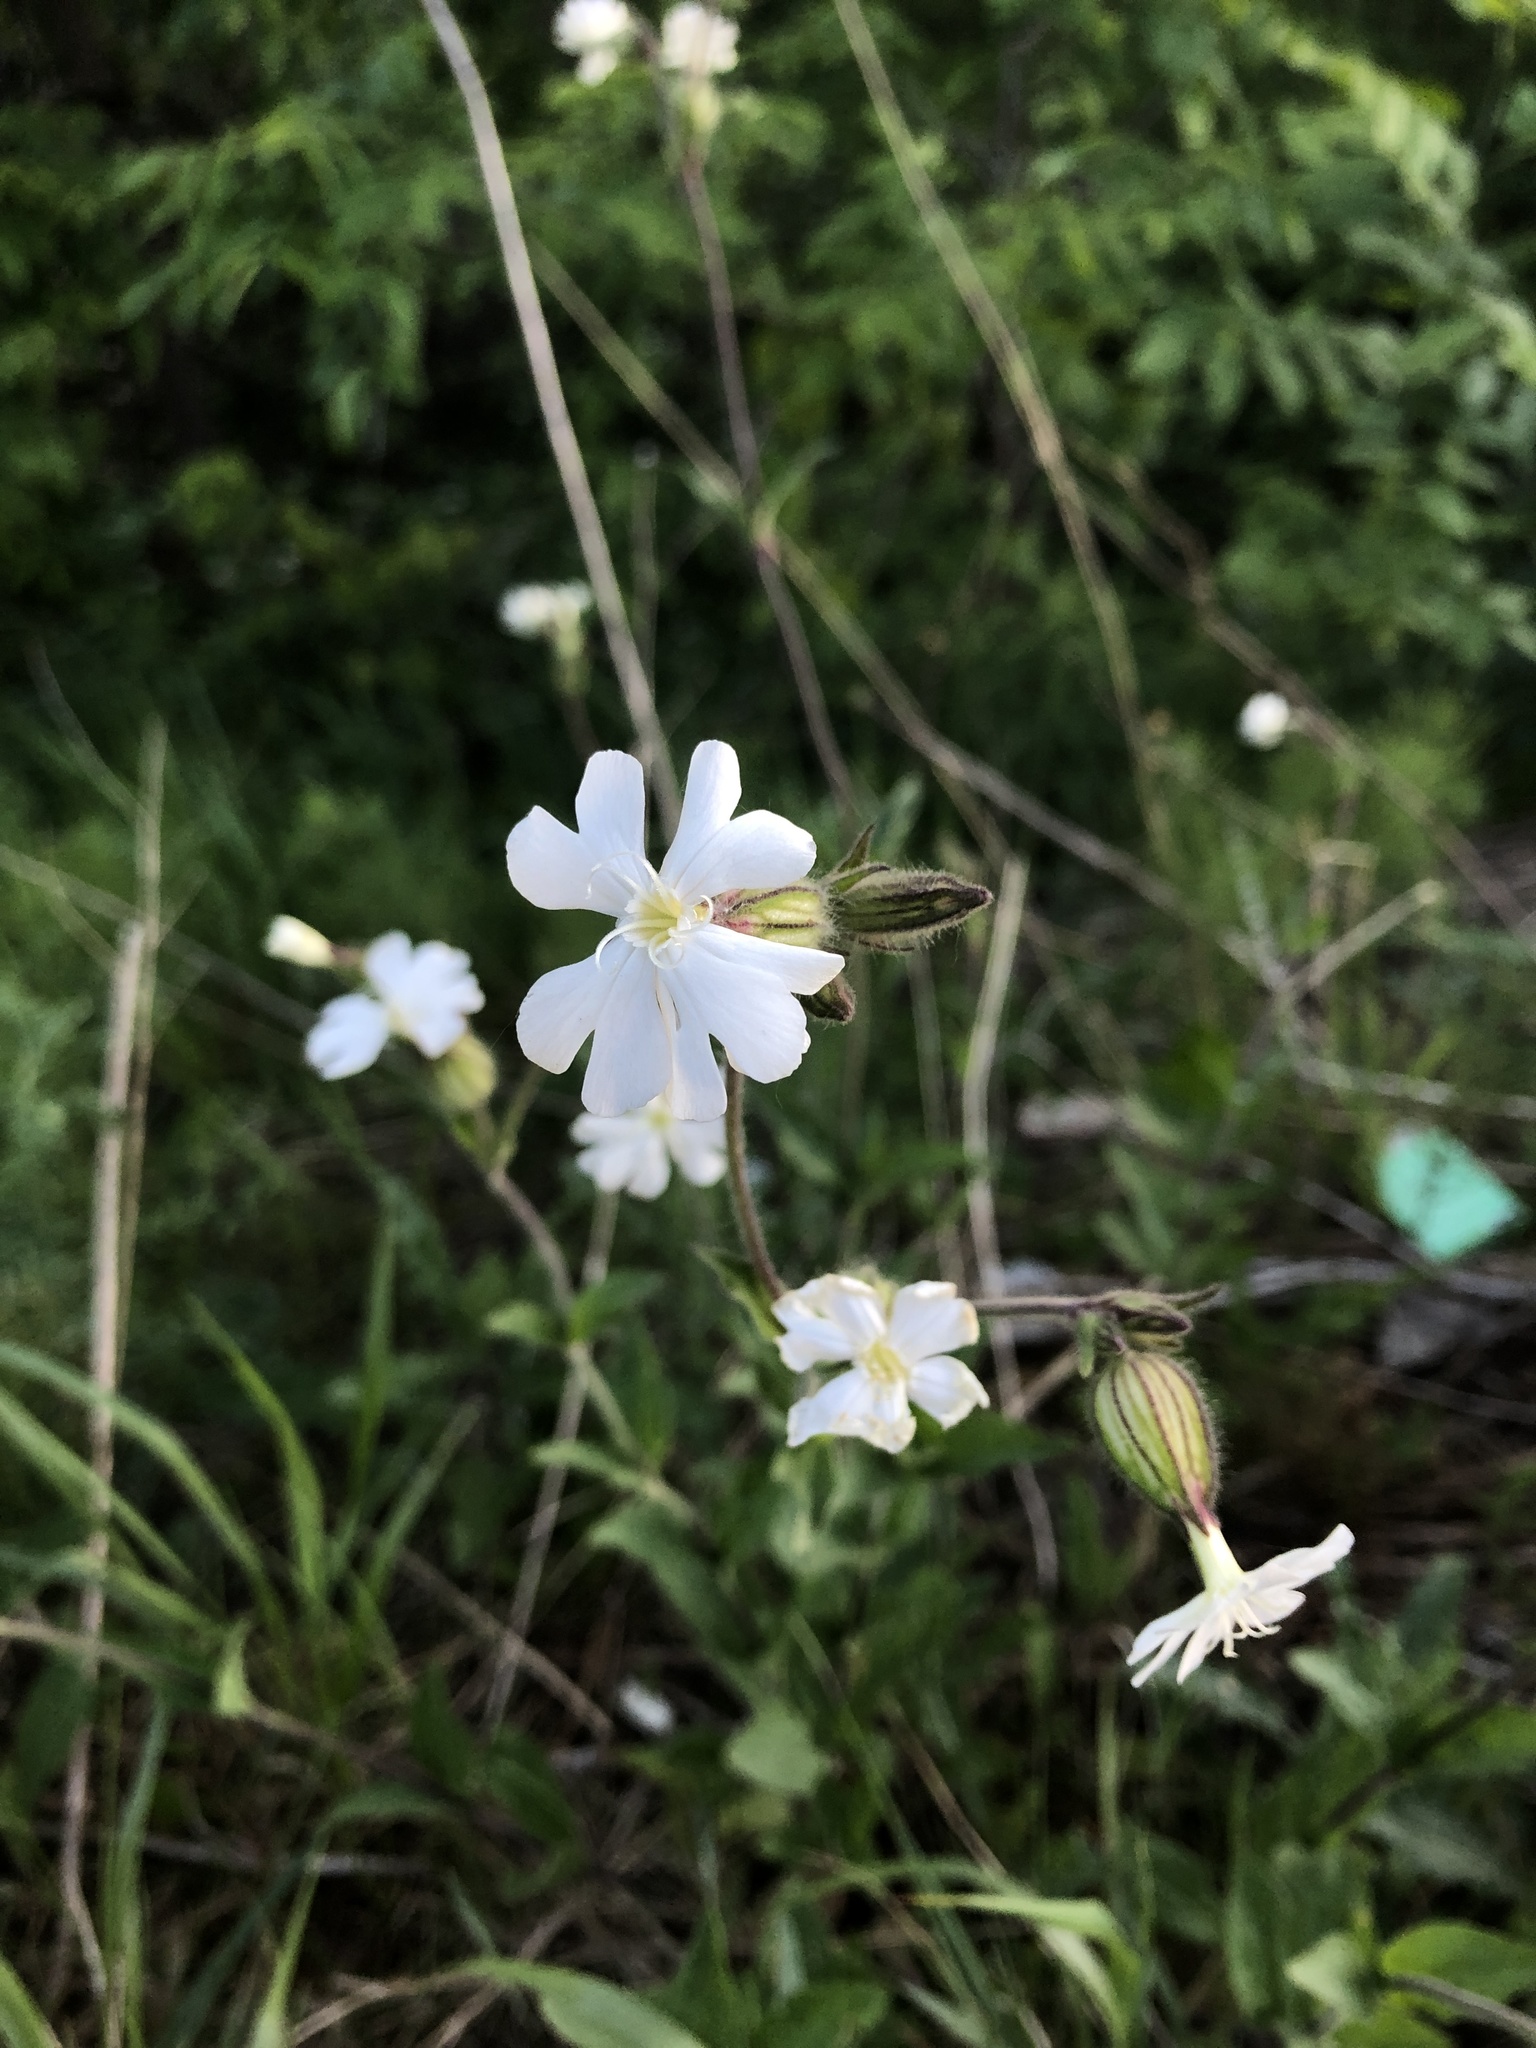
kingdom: Plantae
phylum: Tracheophyta
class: Magnoliopsida
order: Caryophyllales
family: Caryophyllaceae
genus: Silene
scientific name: Silene latifolia
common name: White campion
